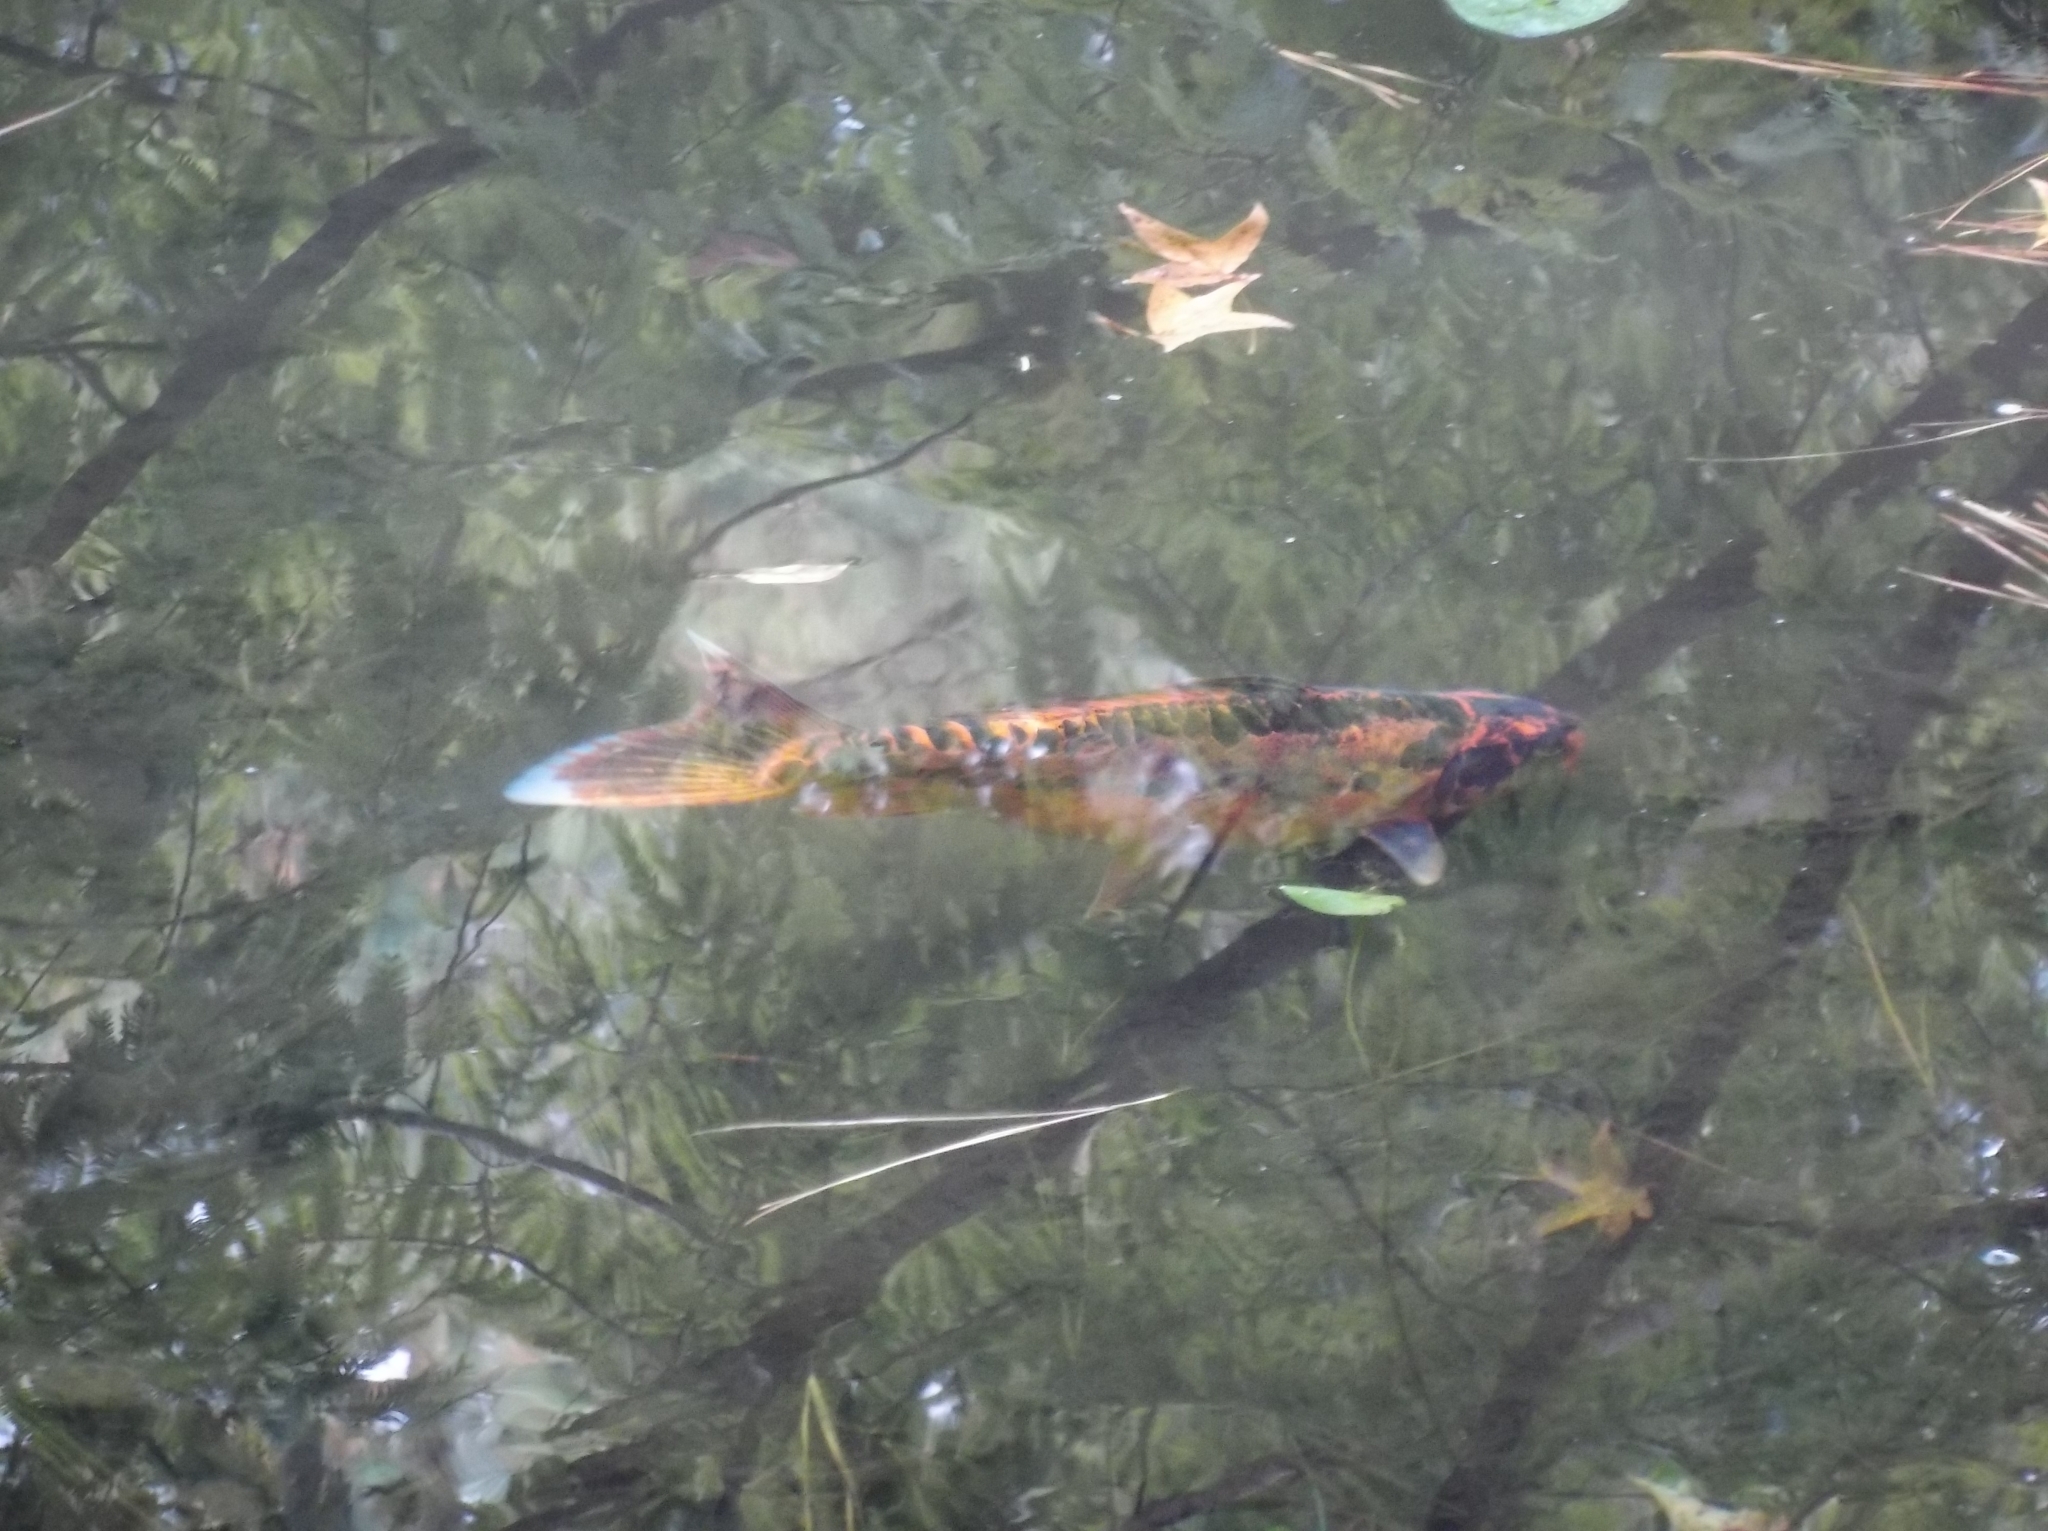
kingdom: Animalia
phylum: Chordata
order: Cypriniformes
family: Cyprinidae
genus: Cyprinus
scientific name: Cyprinus rubrofuscus
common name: Koi
